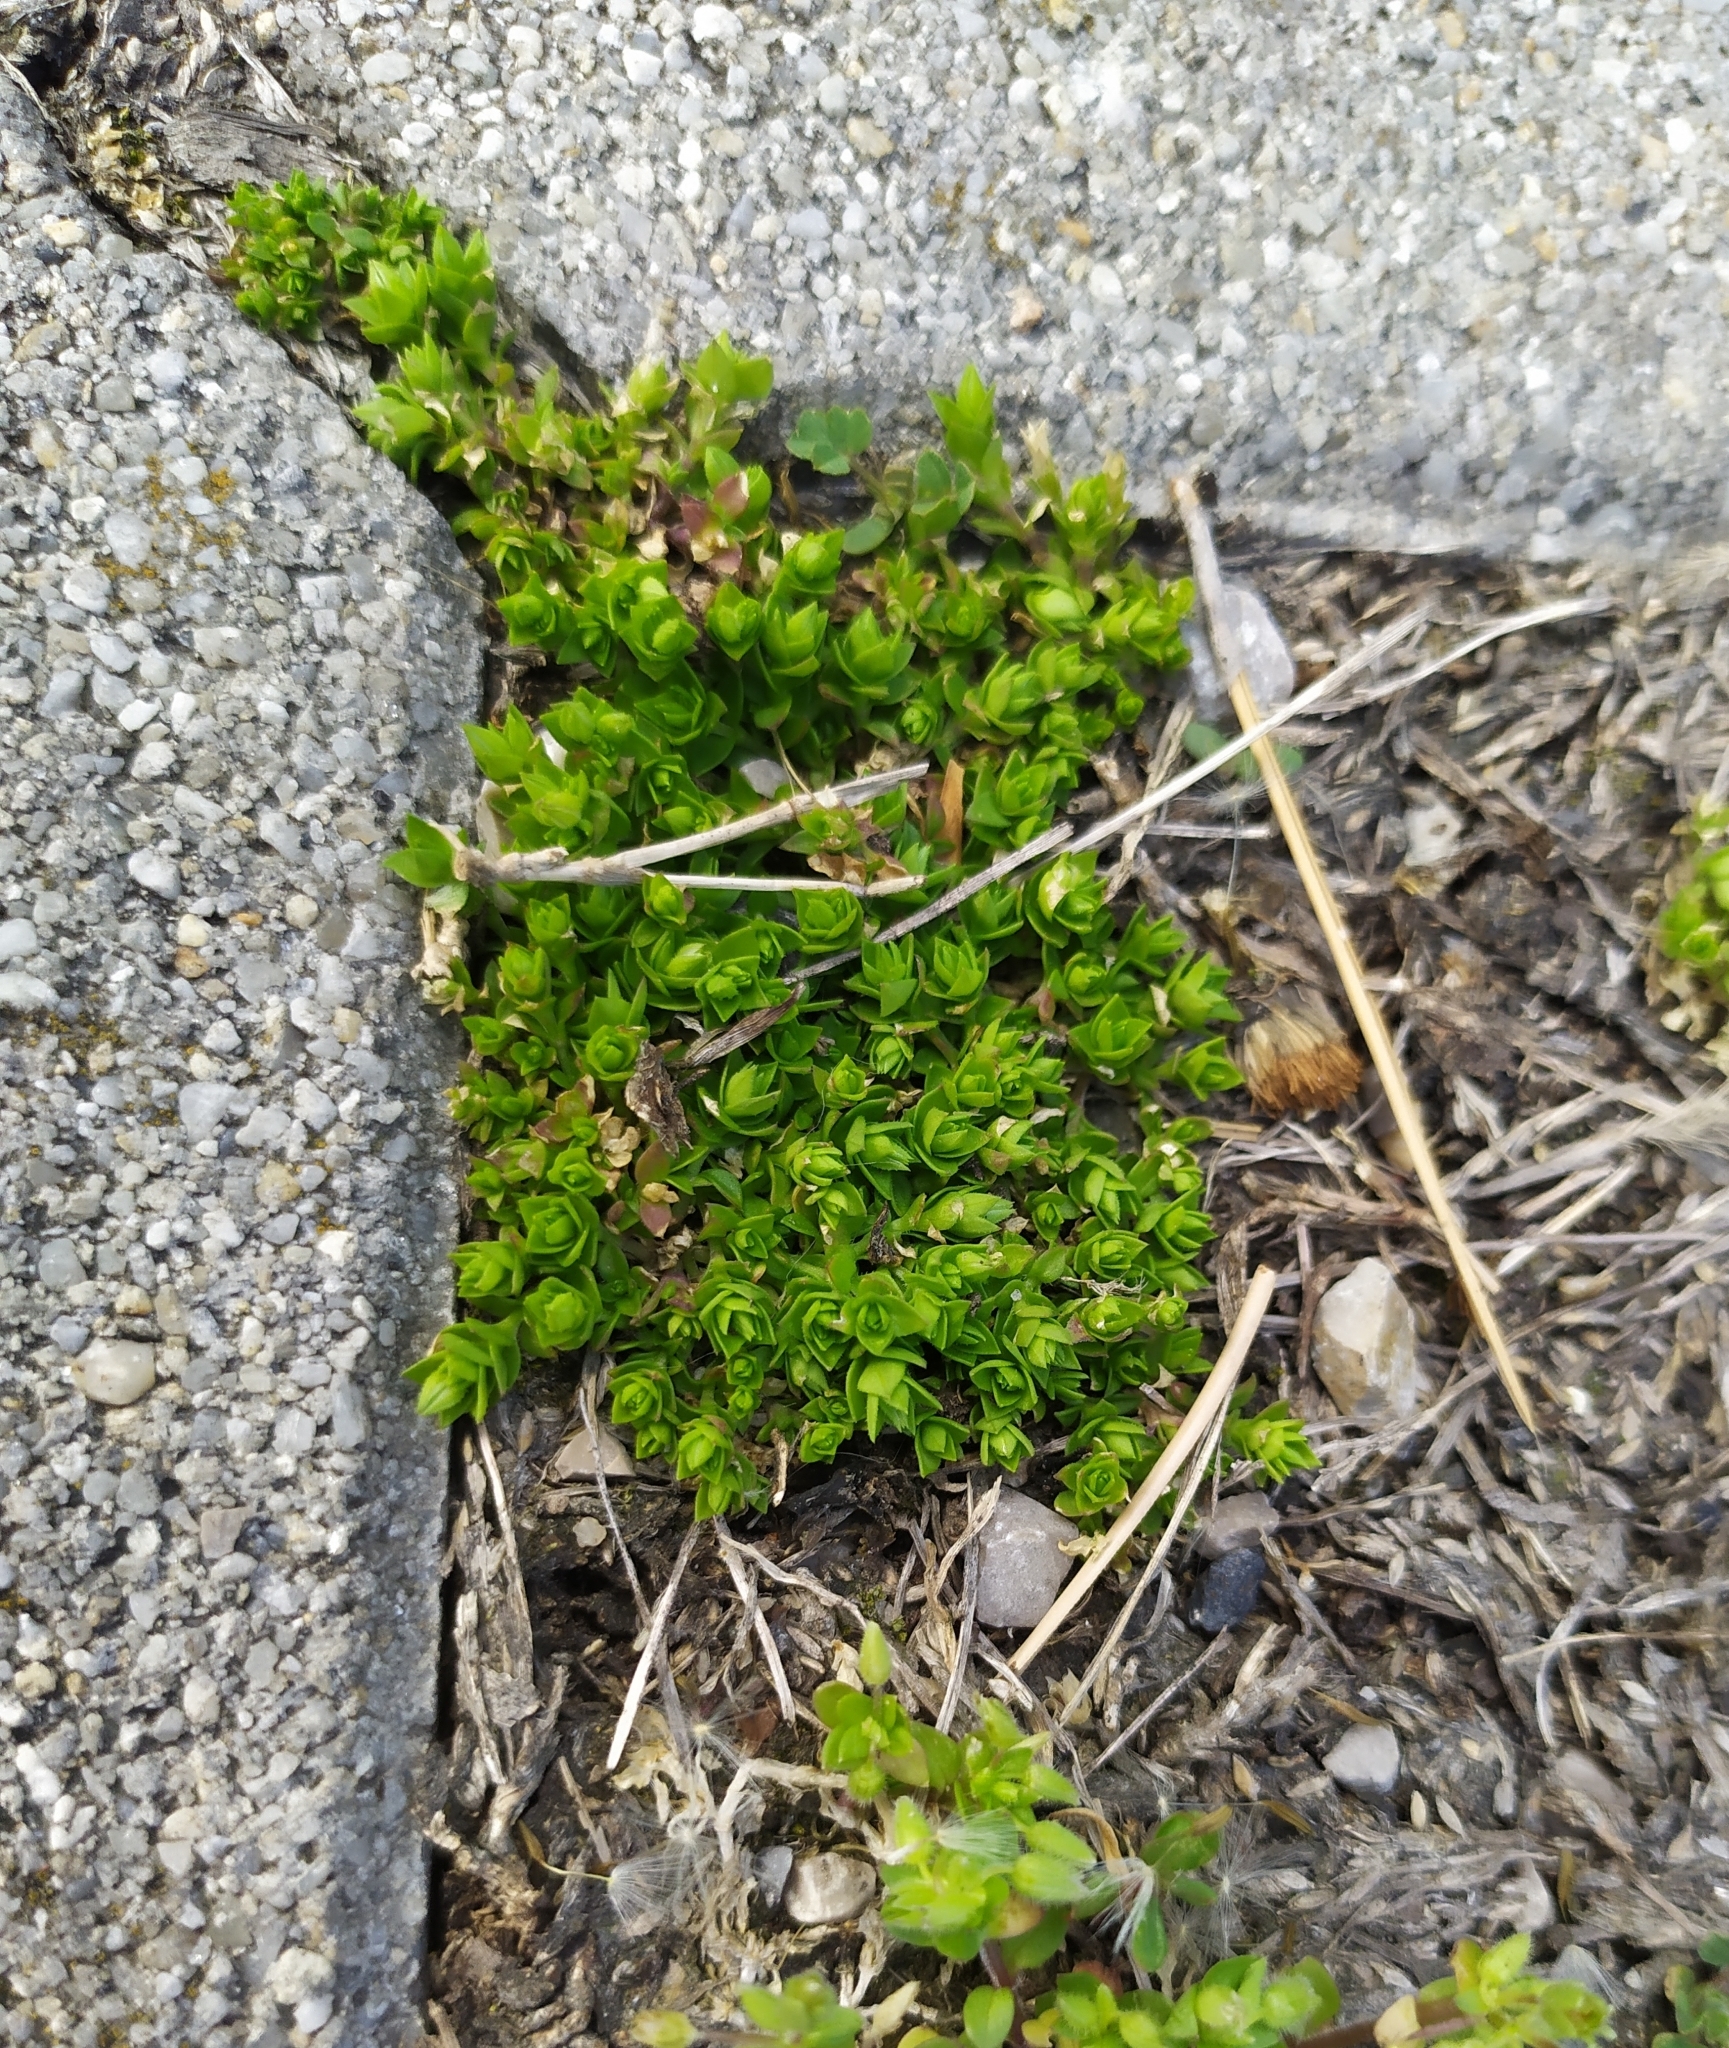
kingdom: Plantae
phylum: Tracheophyta
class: Magnoliopsida
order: Caryophyllales
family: Caryophyllaceae
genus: Arenaria
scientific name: Arenaria serpyllifolia
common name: Thyme-leaved sandwort
